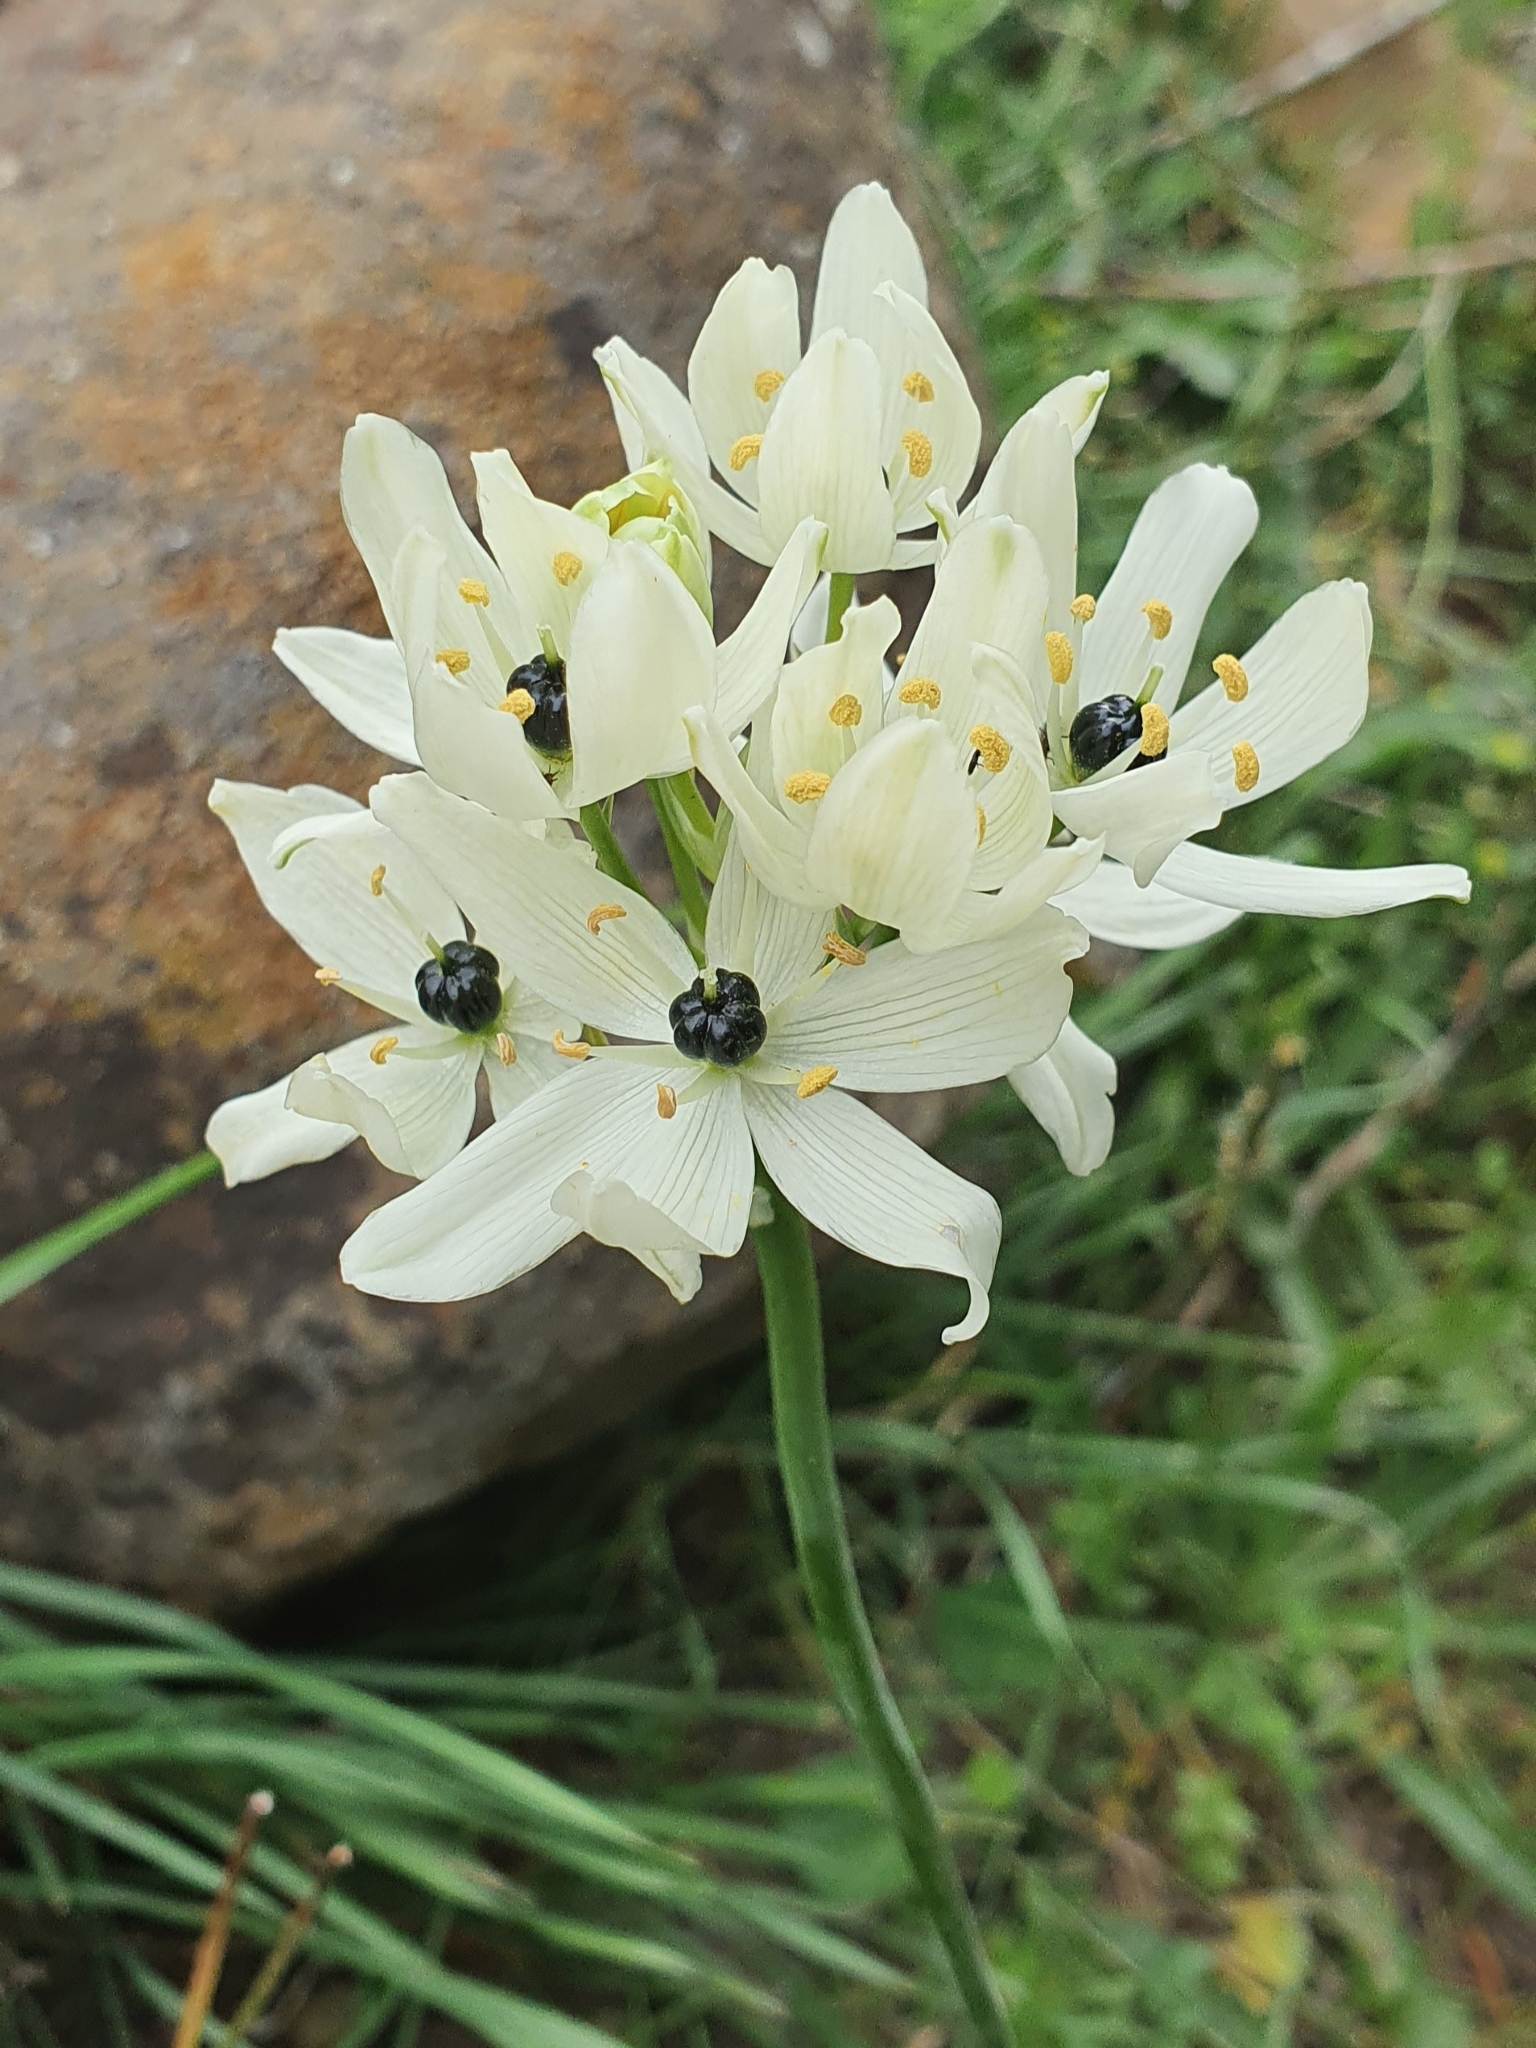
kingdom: Plantae
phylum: Tracheophyta
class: Liliopsida
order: Asparagales
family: Asparagaceae
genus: Ornithogalum
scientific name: Ornithogalum arabicum
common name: Arabian starflower
